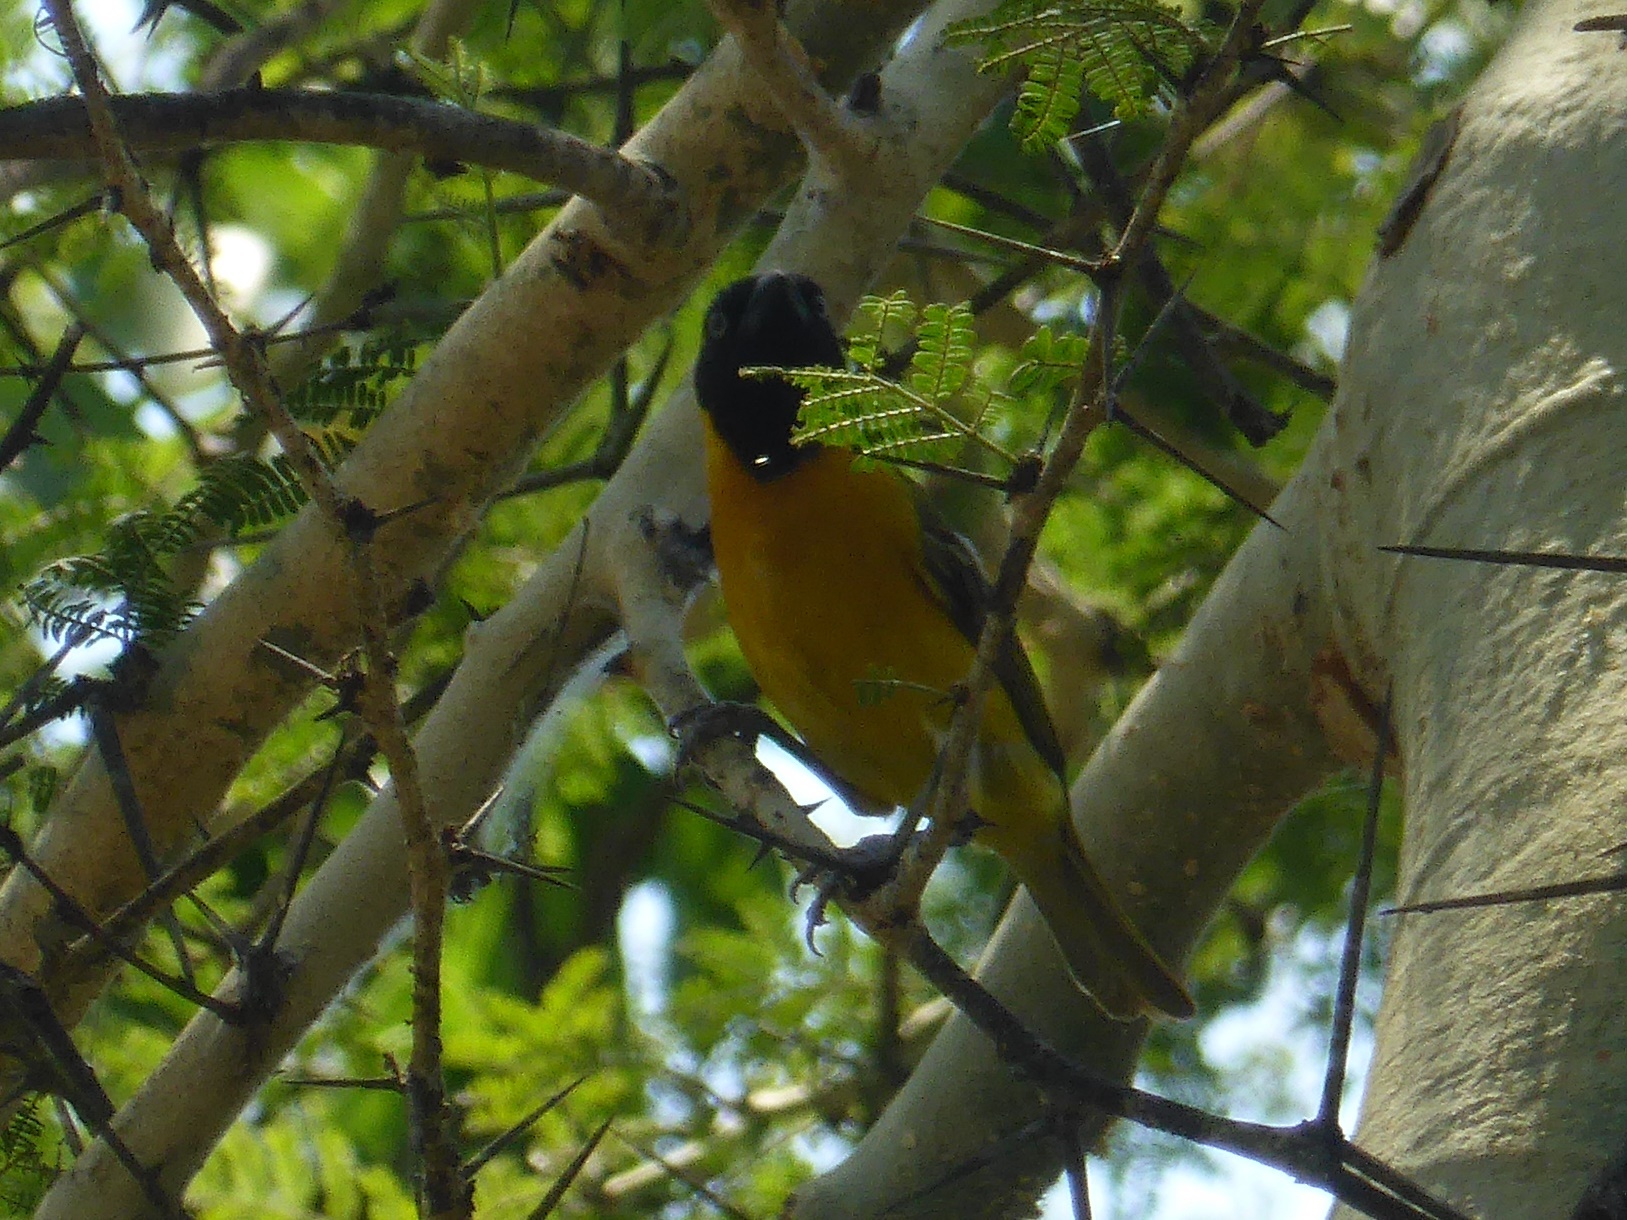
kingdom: Animalia
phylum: Chordata
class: Aves
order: Passeriformes
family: Ploceidae
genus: Ploceus
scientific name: Ploceus intermedius
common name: Lesser masked weaver
